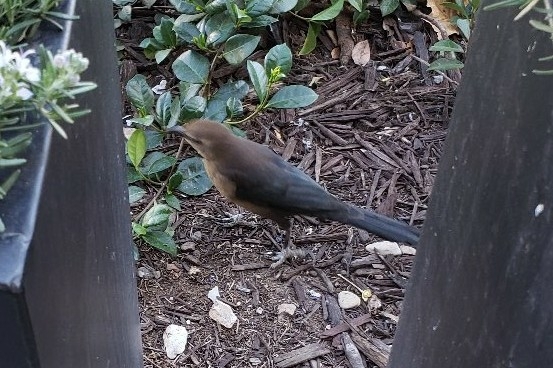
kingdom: Animalia
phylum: Chordata
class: Aves
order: Passeriformes
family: Icteridae
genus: Quiscalus
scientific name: Quiscalus mexicanus
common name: Great-tailed grackle
